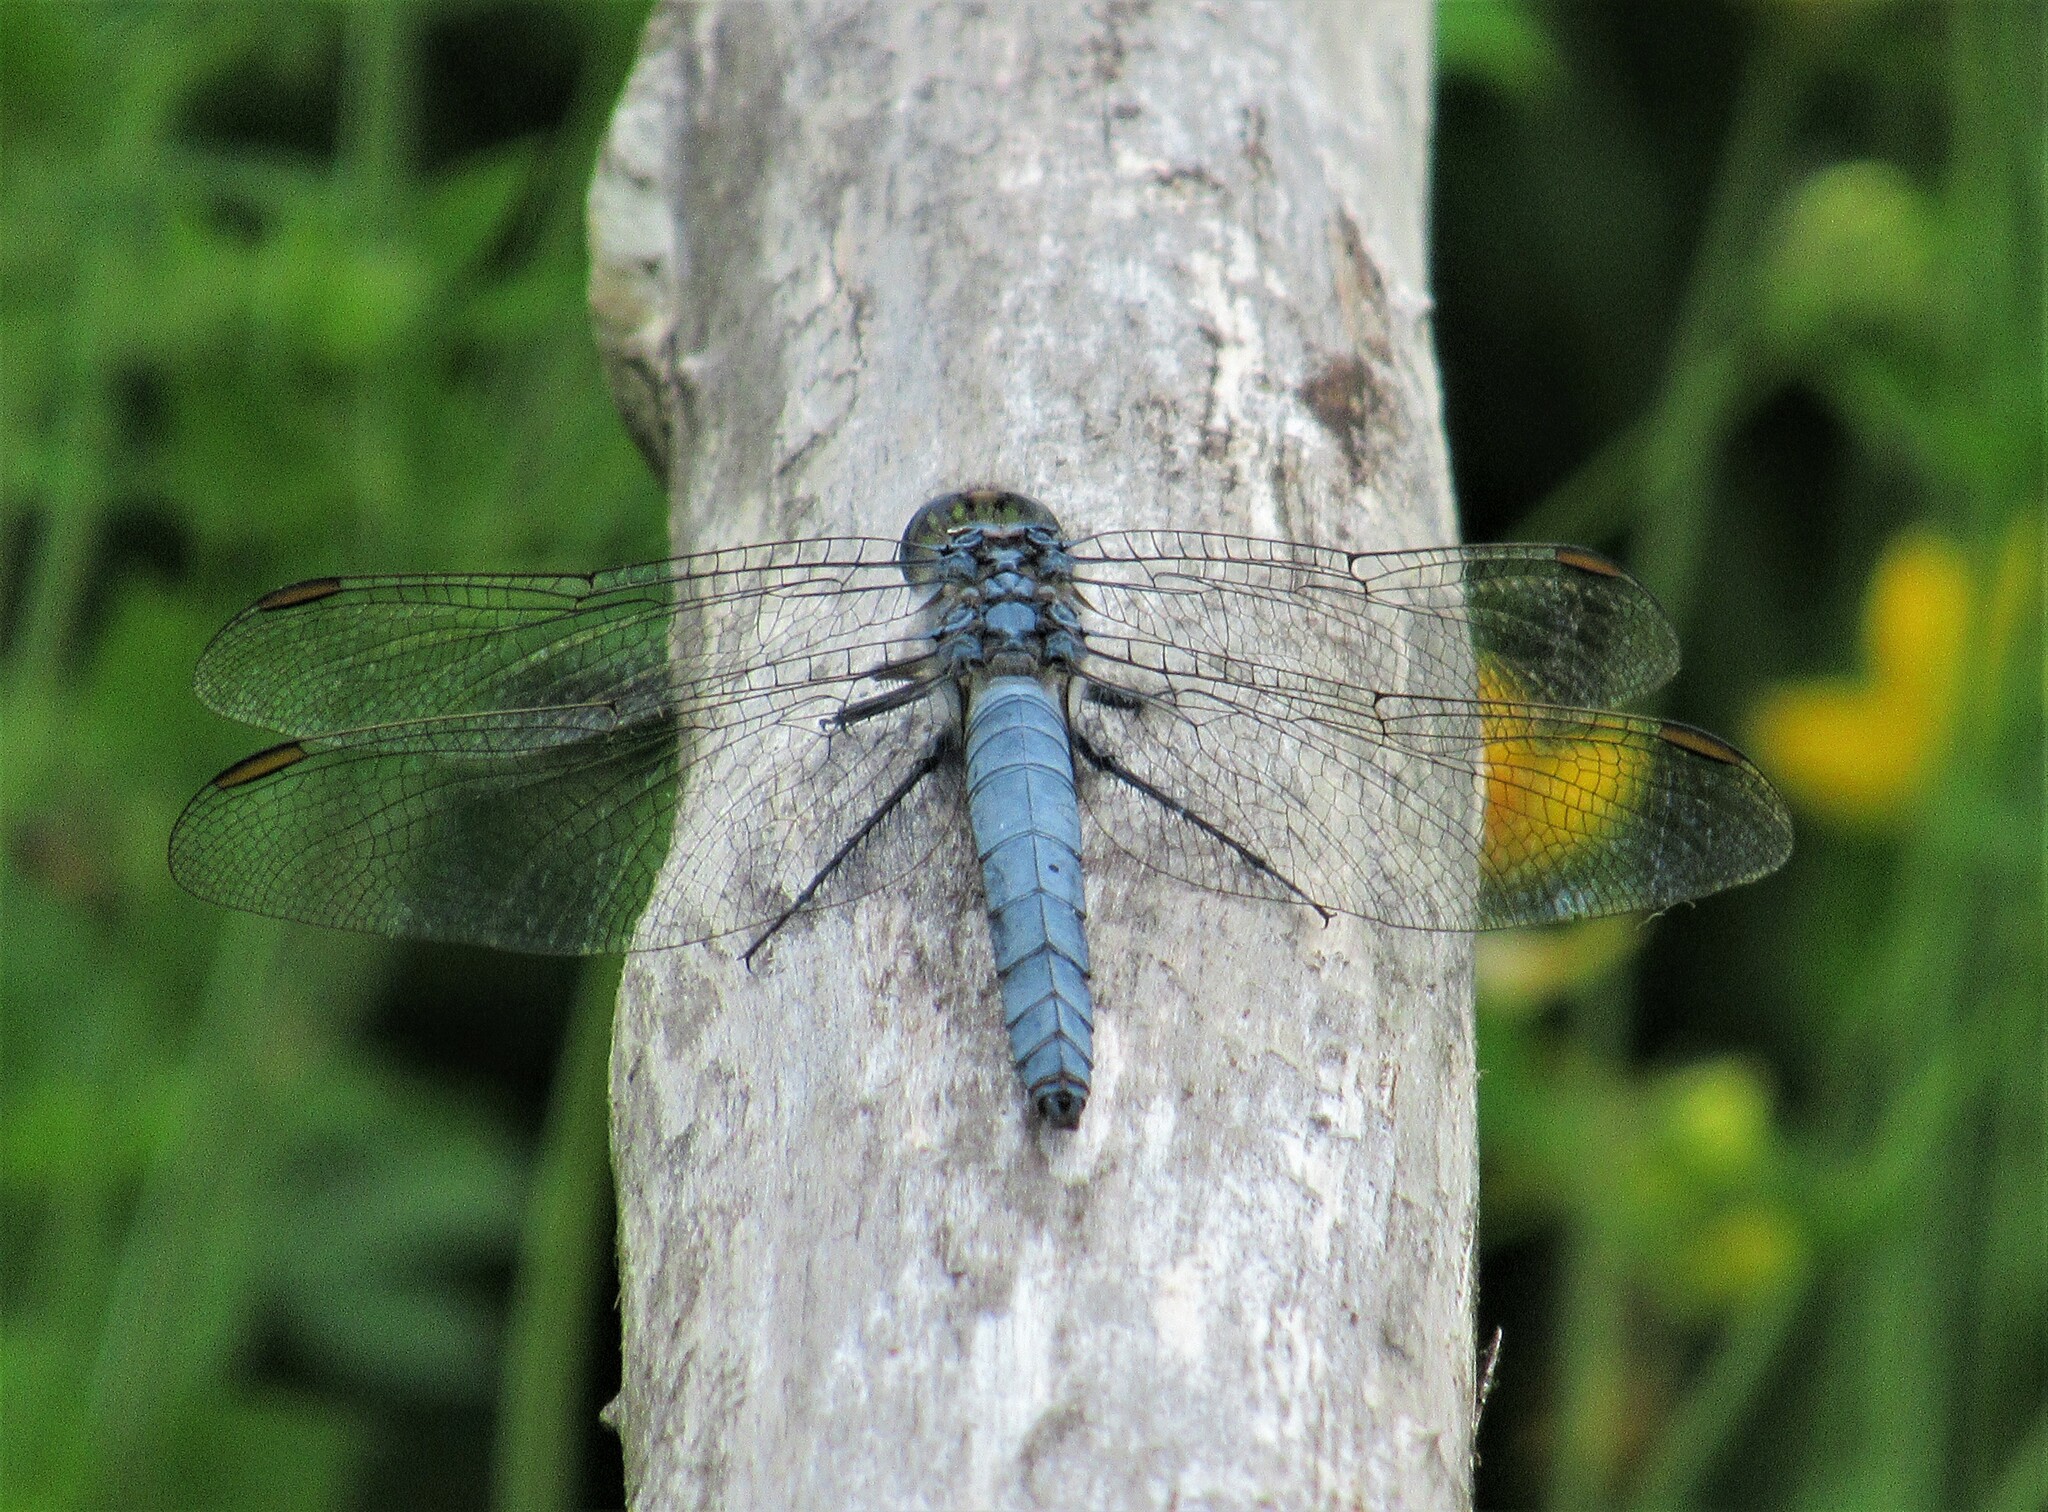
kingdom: Animalia
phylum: Arthropoda
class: Insecta
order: Odonata
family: Libellulidae
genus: Erythemis
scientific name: Erythemis collocata
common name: Western pondhawk
